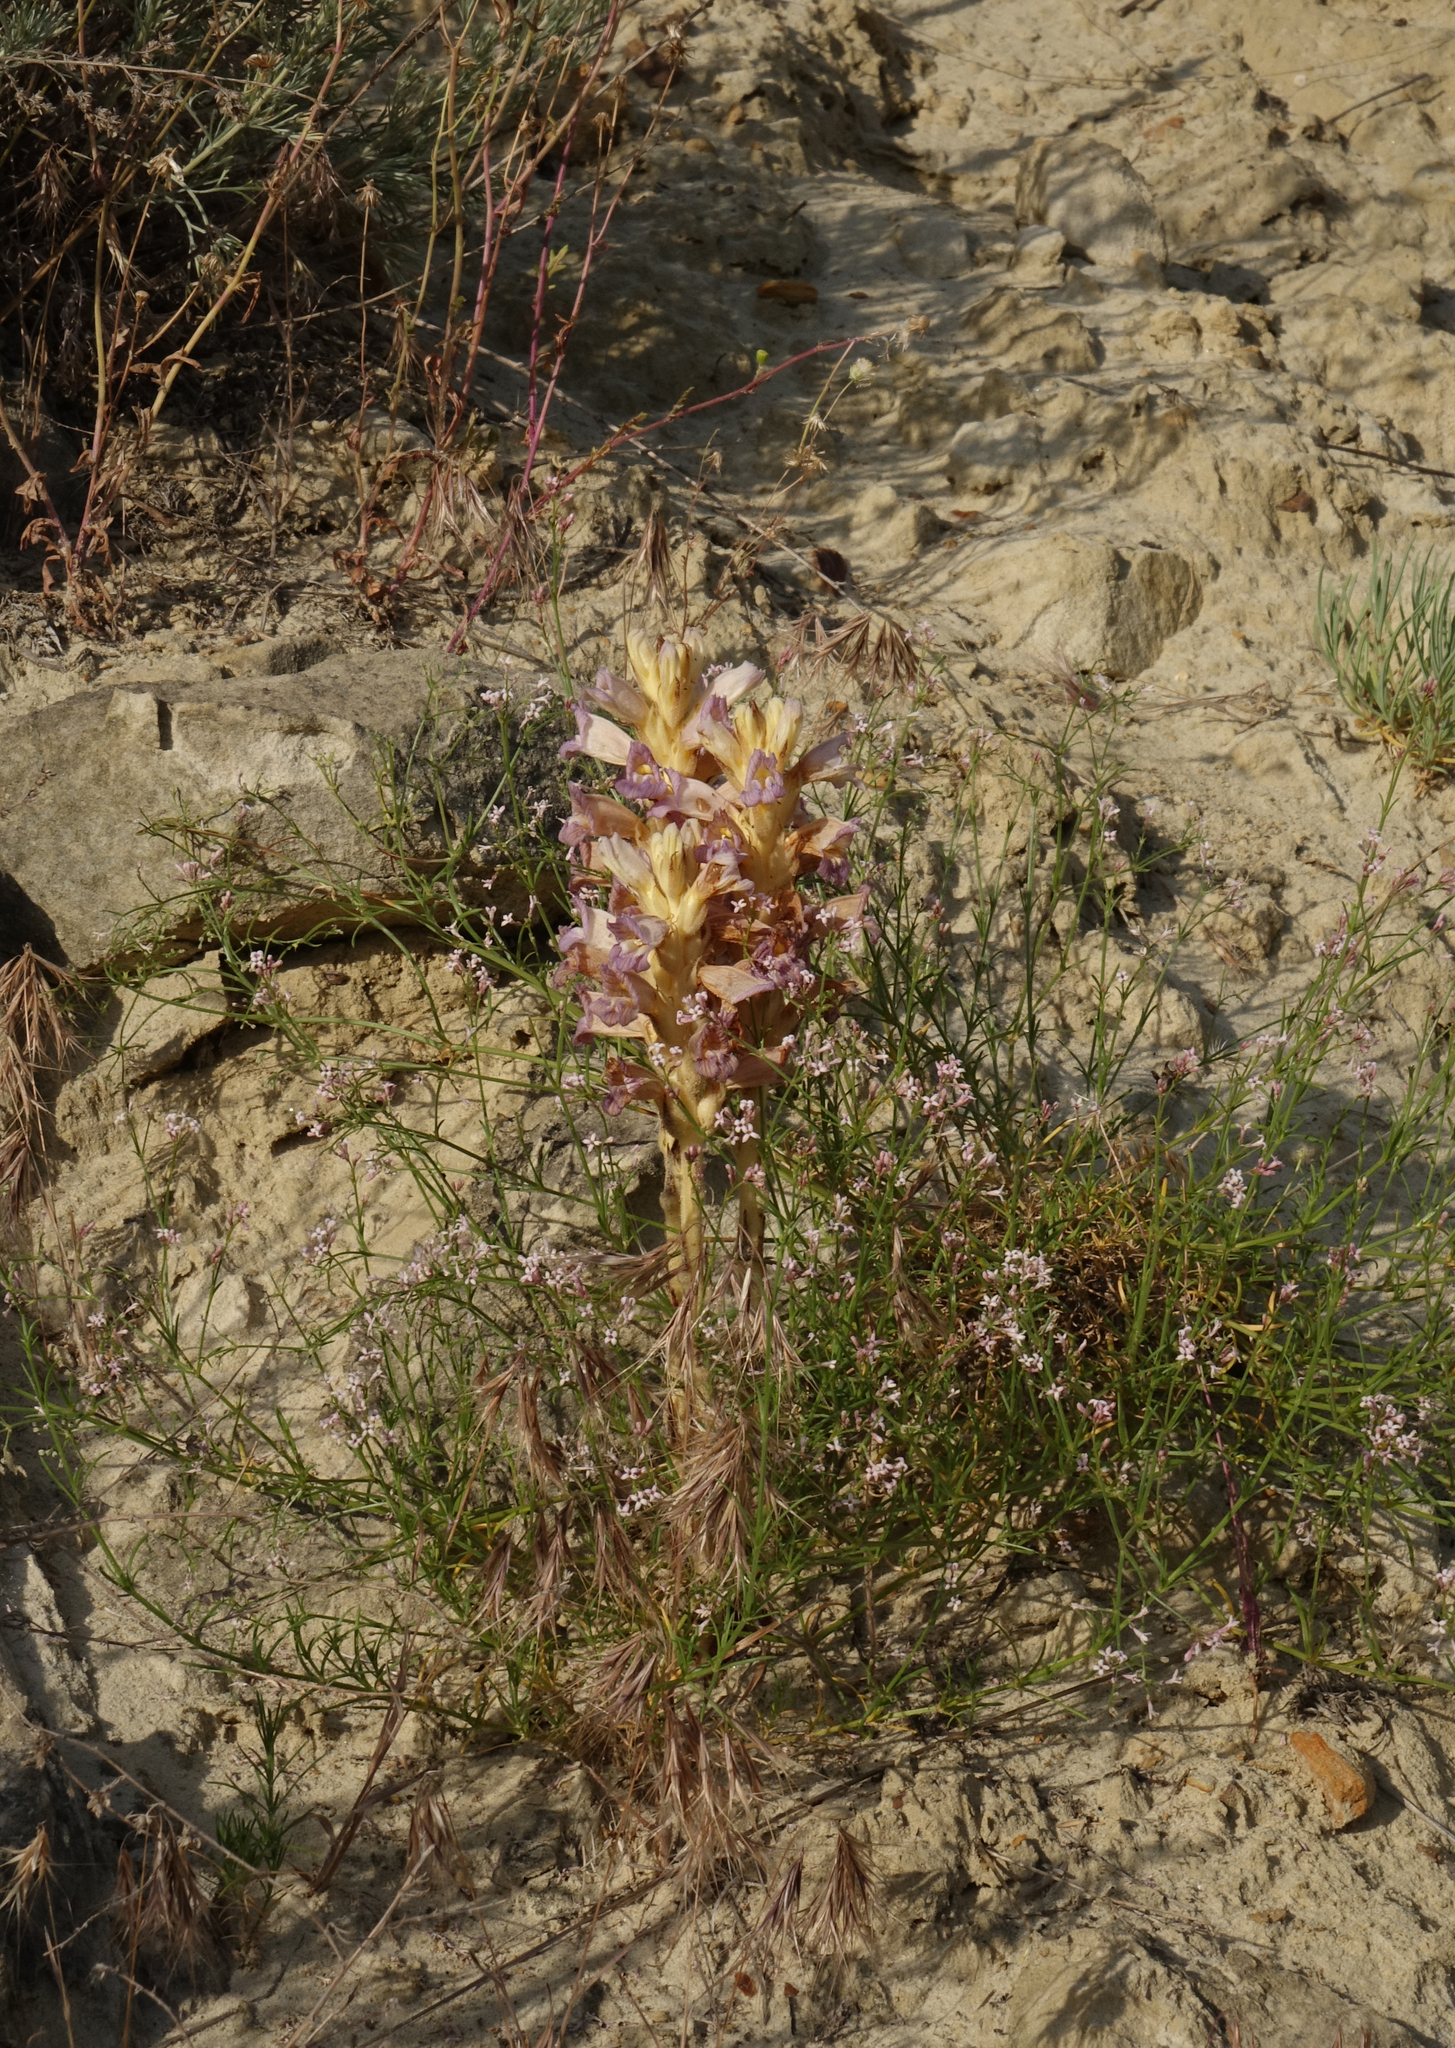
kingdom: Plantae
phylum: Tracheophyta
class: Magnoliopsida
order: Lamiales
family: Orobanchaceae
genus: Phelipanche
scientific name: Phelipanche arenaria
